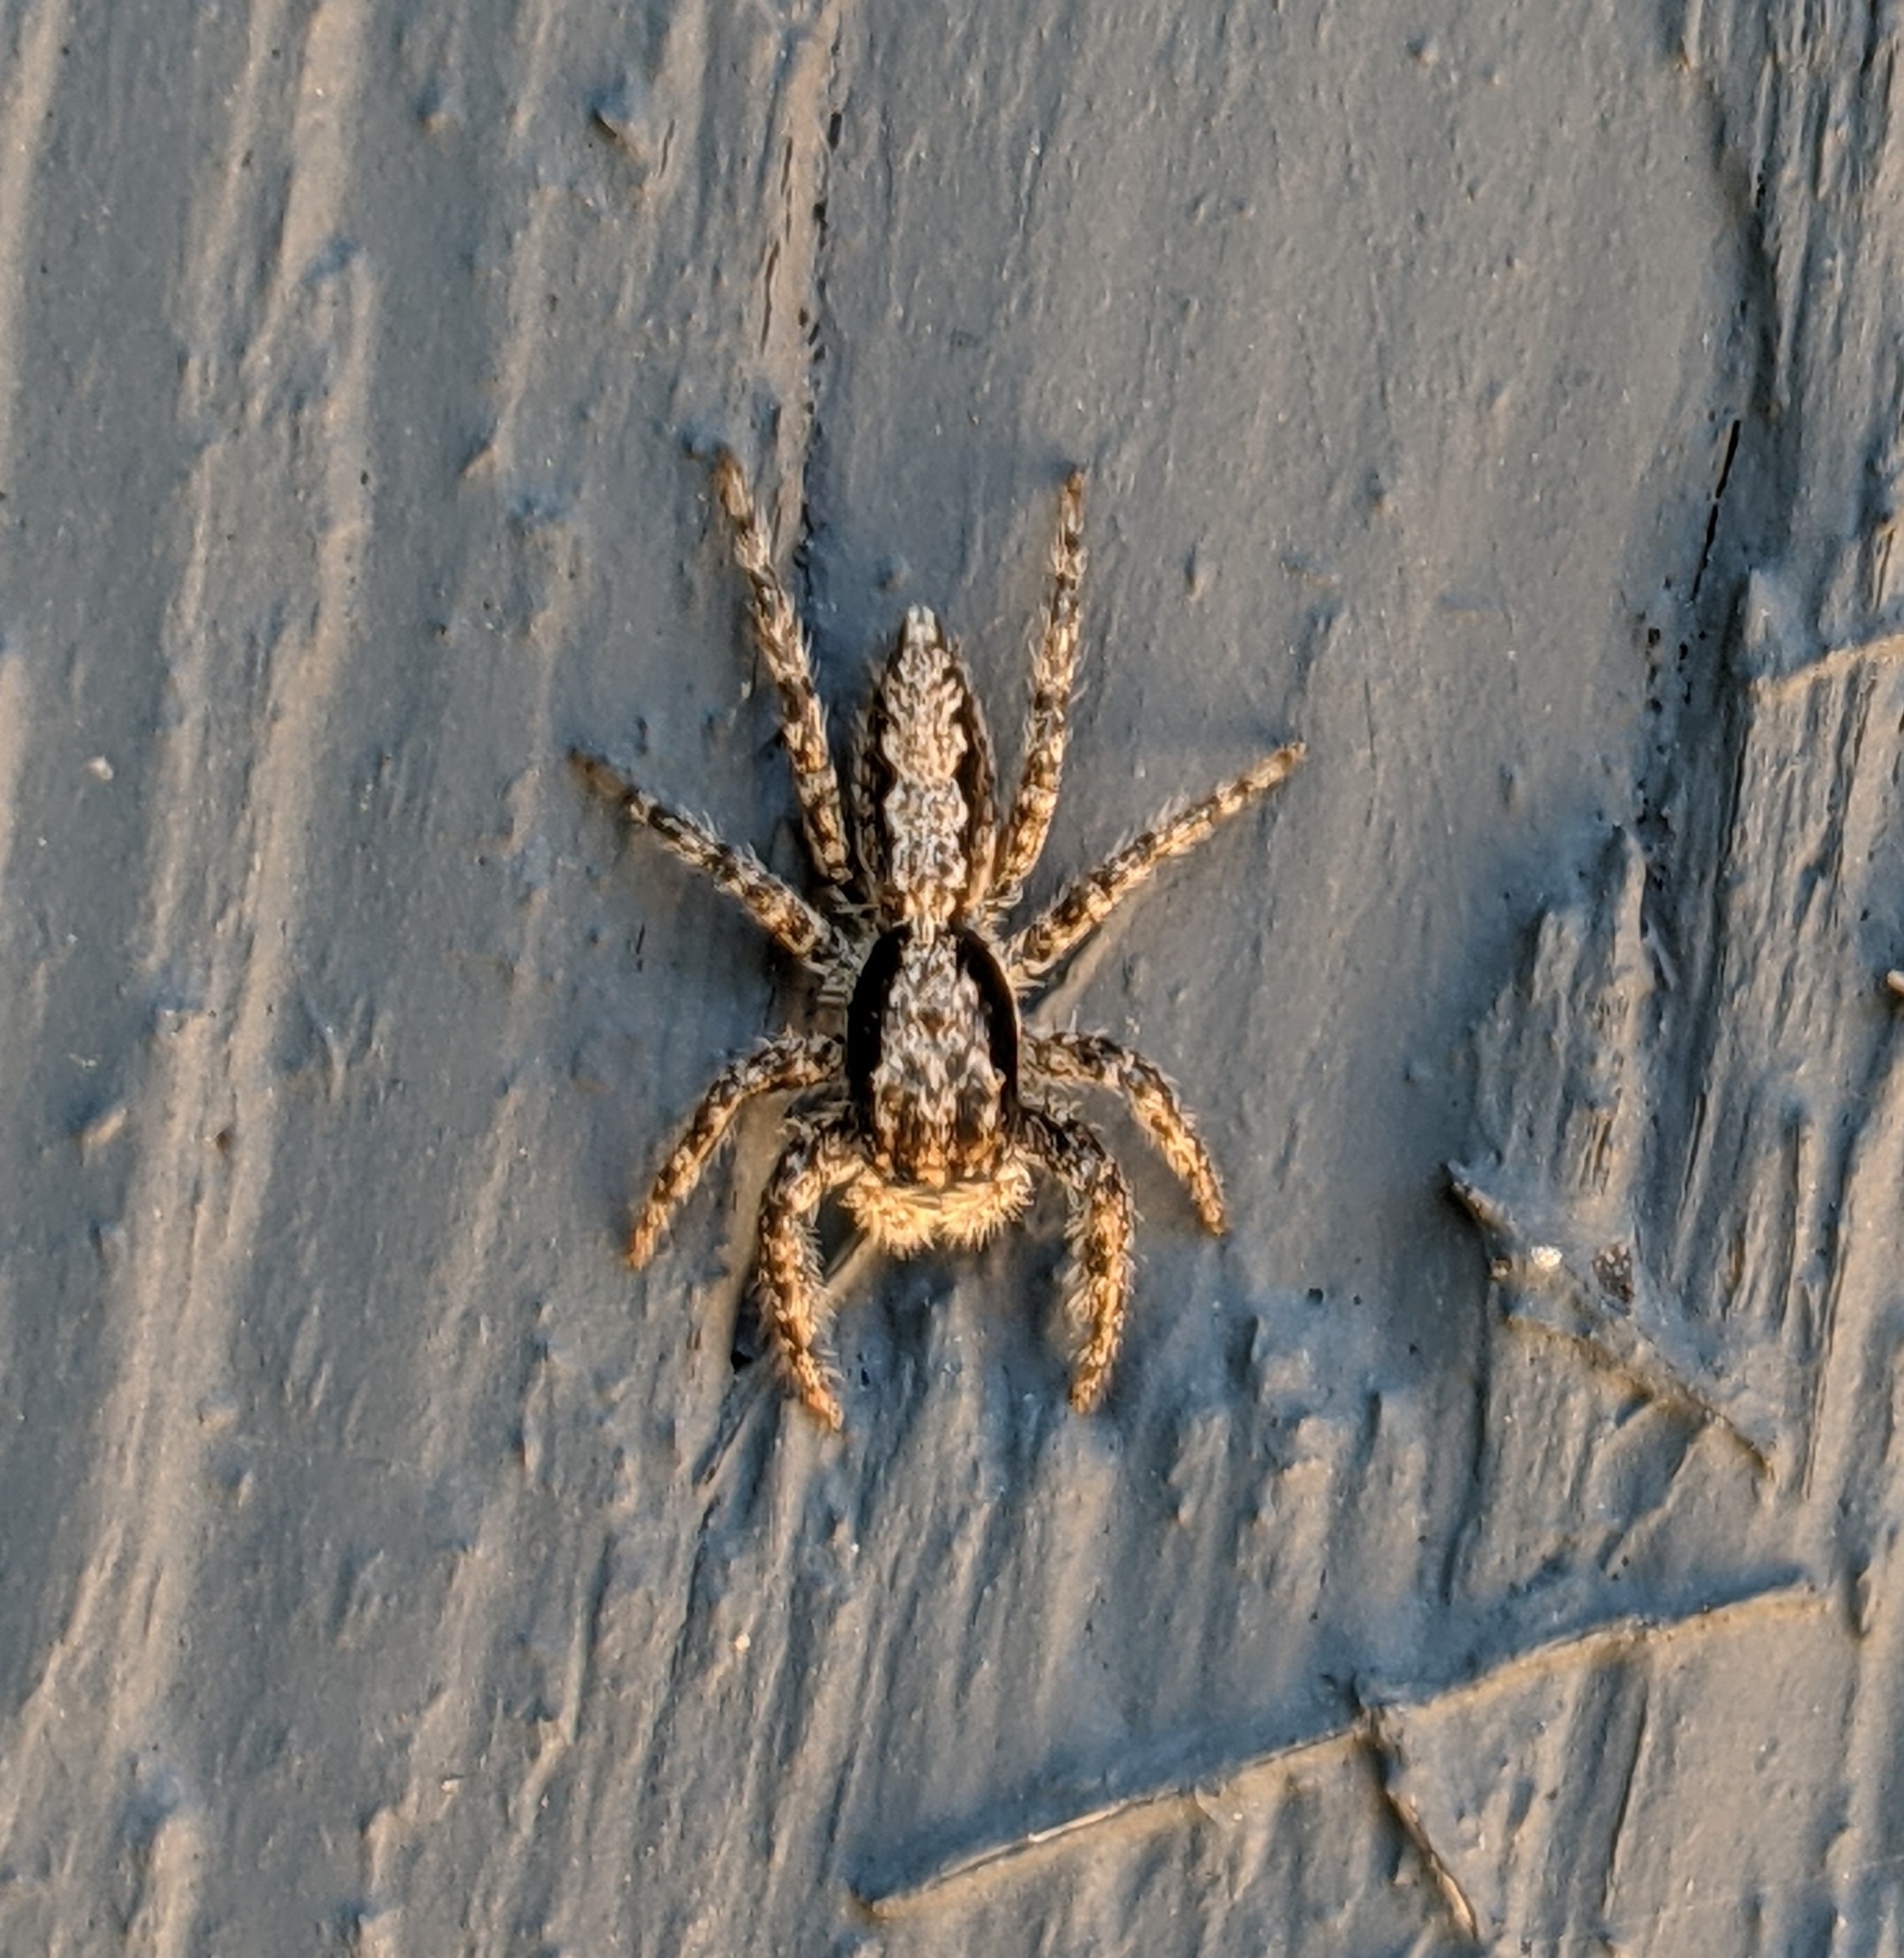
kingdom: Animalia
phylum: Arthropoda
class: Arachnida
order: Araneae
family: Salticidae
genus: Platycryptus
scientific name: Platycryptus californicus
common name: Jumping spiders
